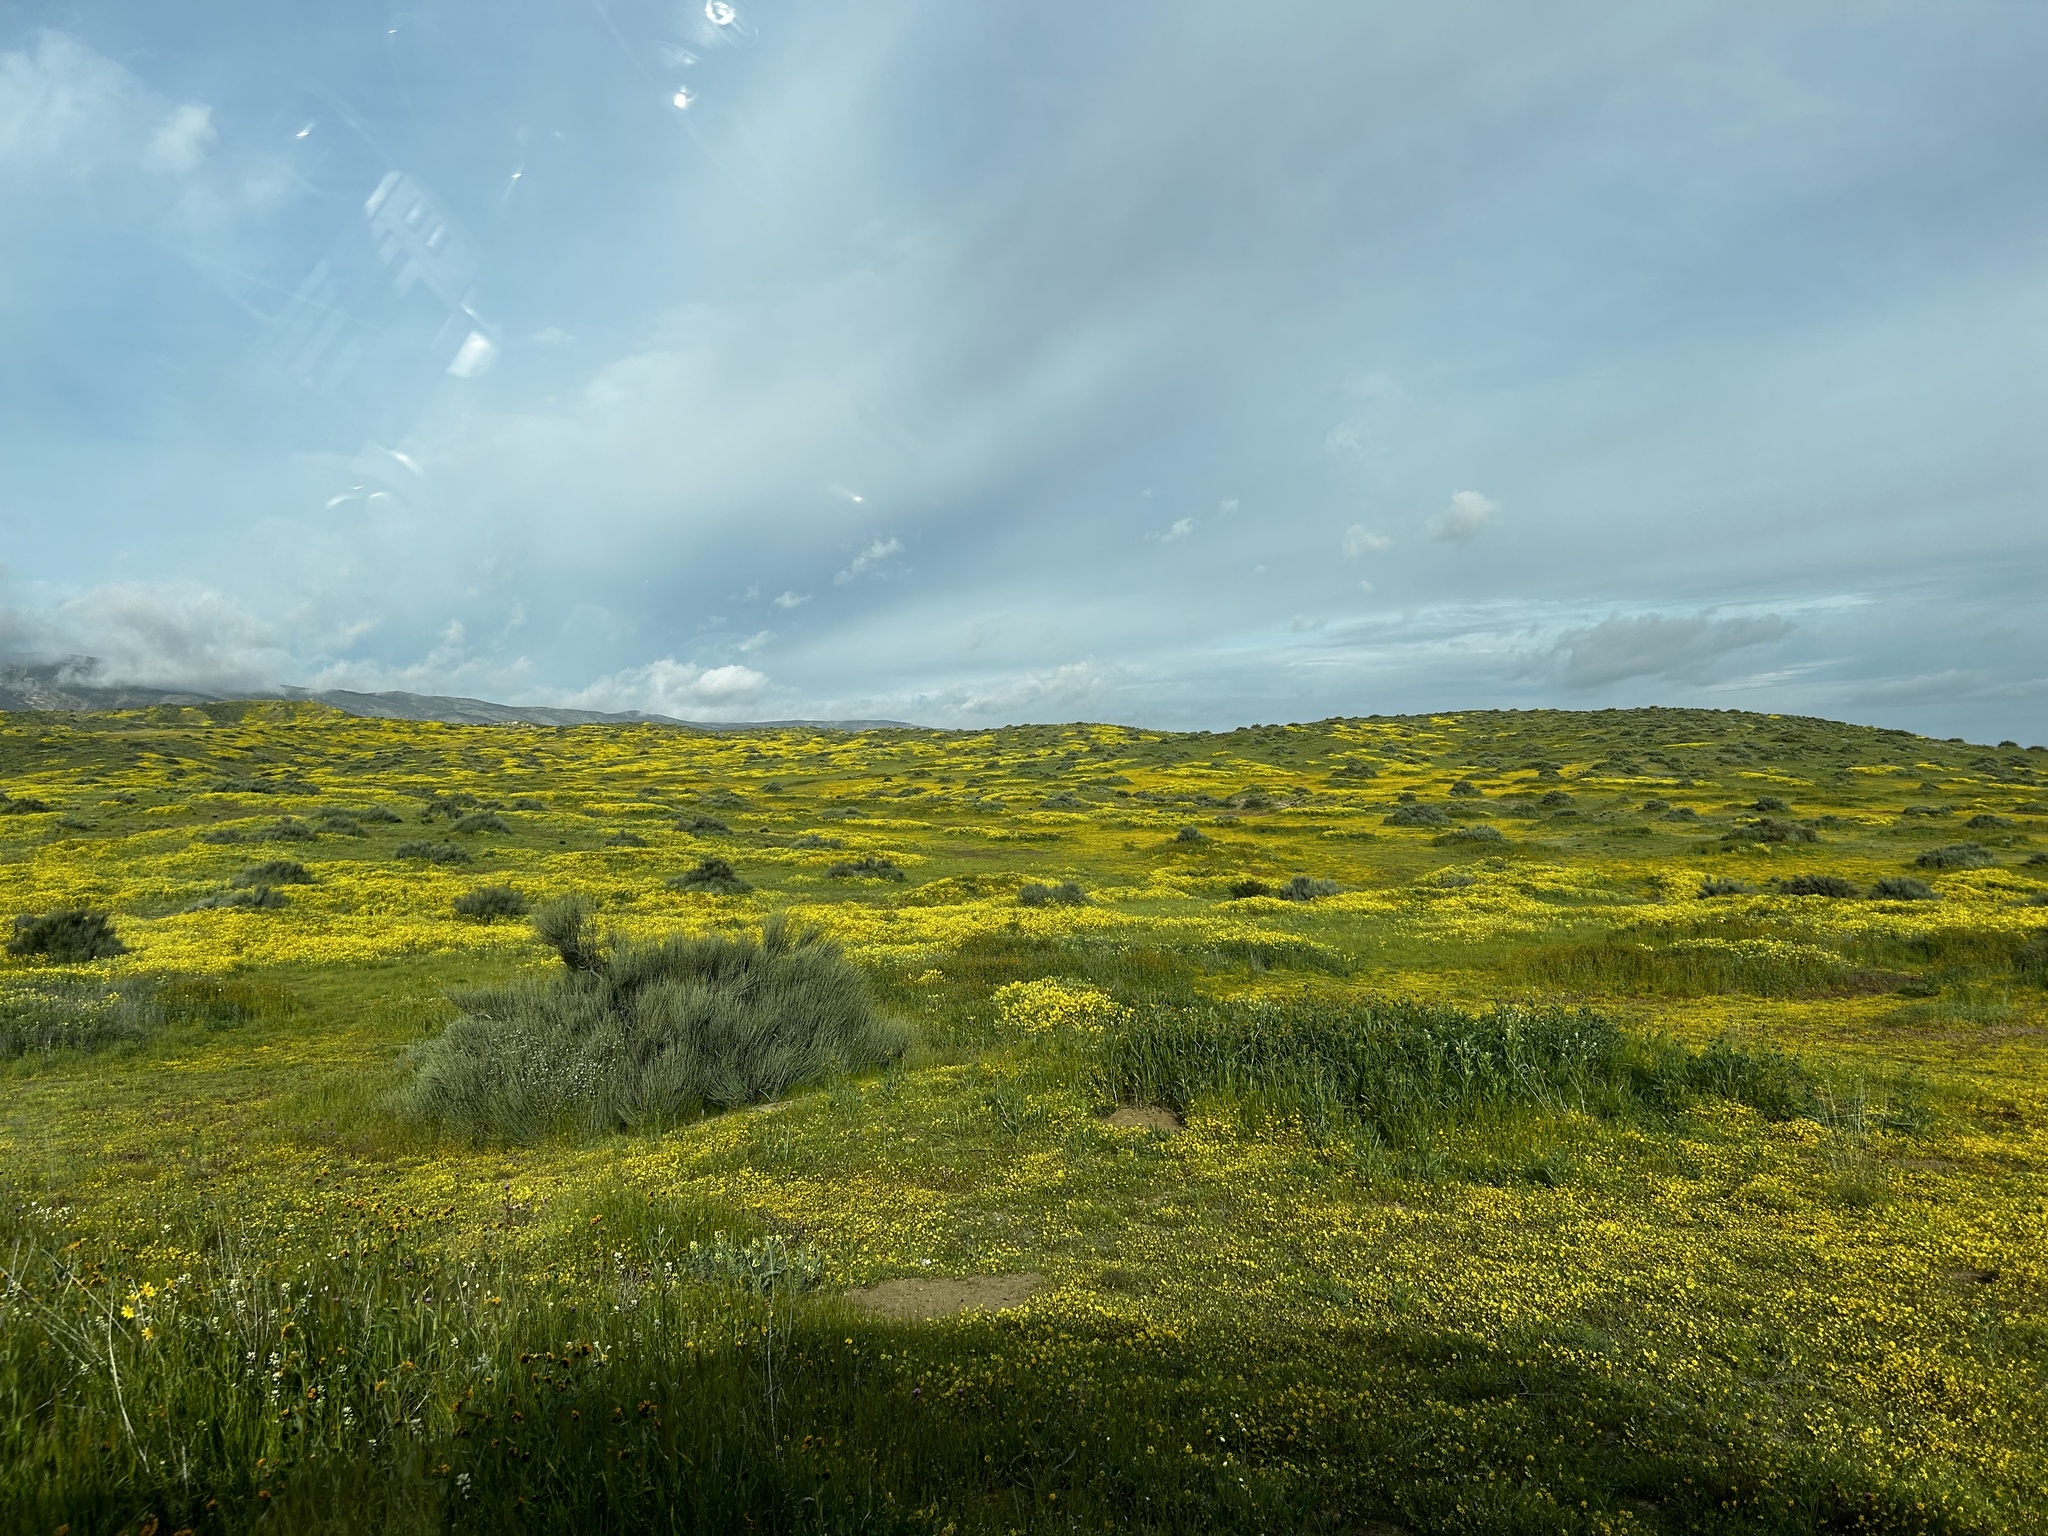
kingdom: Plantae
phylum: Tracheophyta
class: Magnoliopsida
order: Asterales
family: Asteraceae
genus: Monolopia
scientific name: Monolopia lanceolata
